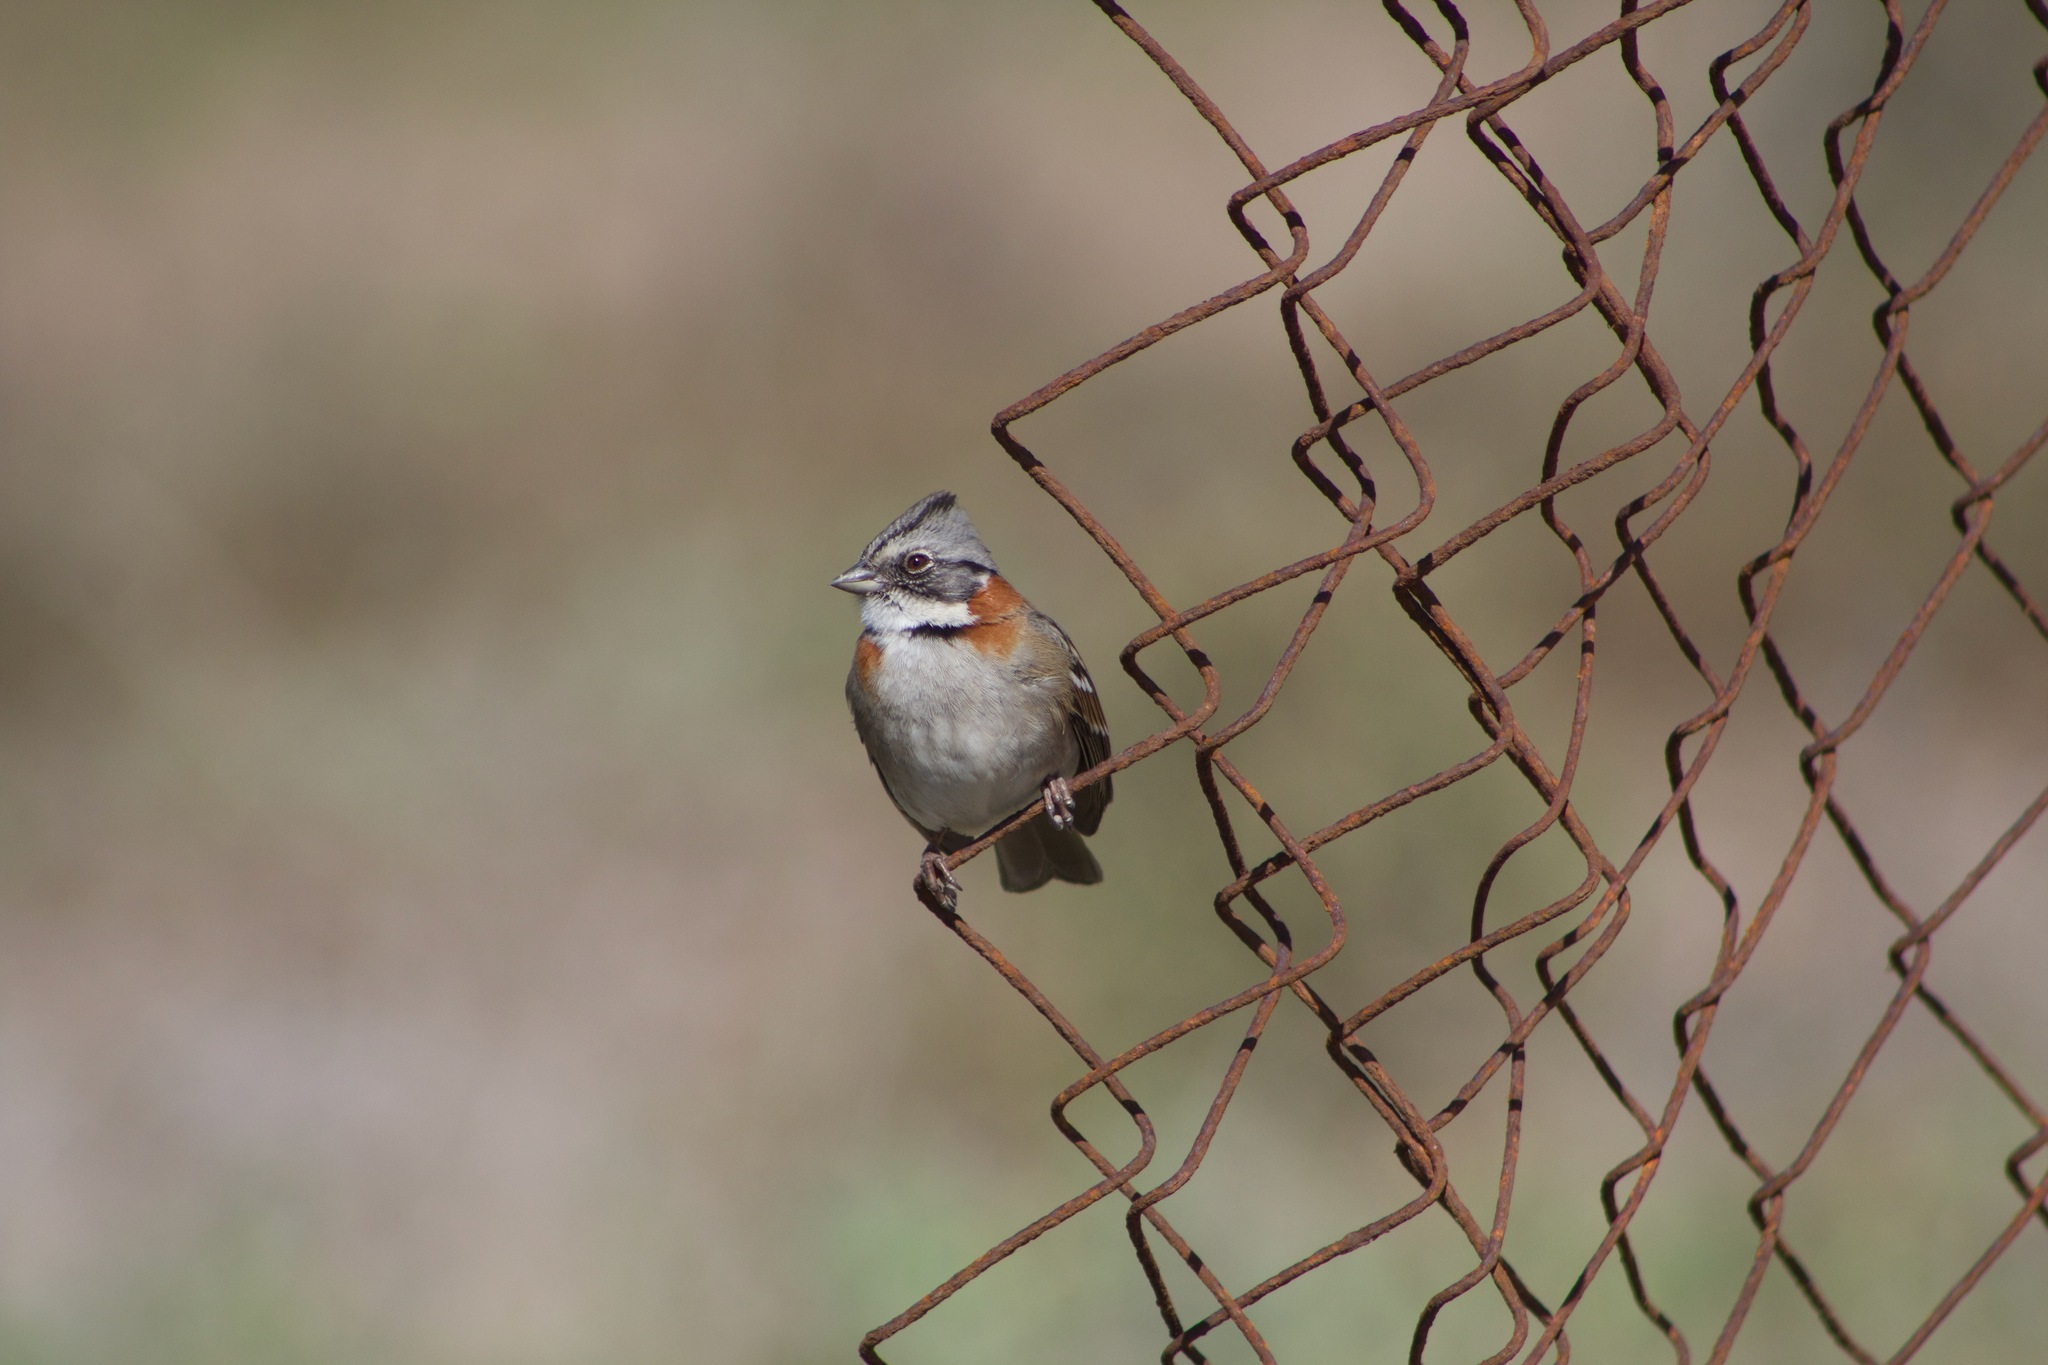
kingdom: Animalia
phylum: Chordata
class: Aves
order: Passeriformes
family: Passerellidae
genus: Zonotrichia
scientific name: Zonotrichia capensis
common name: Rufous-collared sparrow
